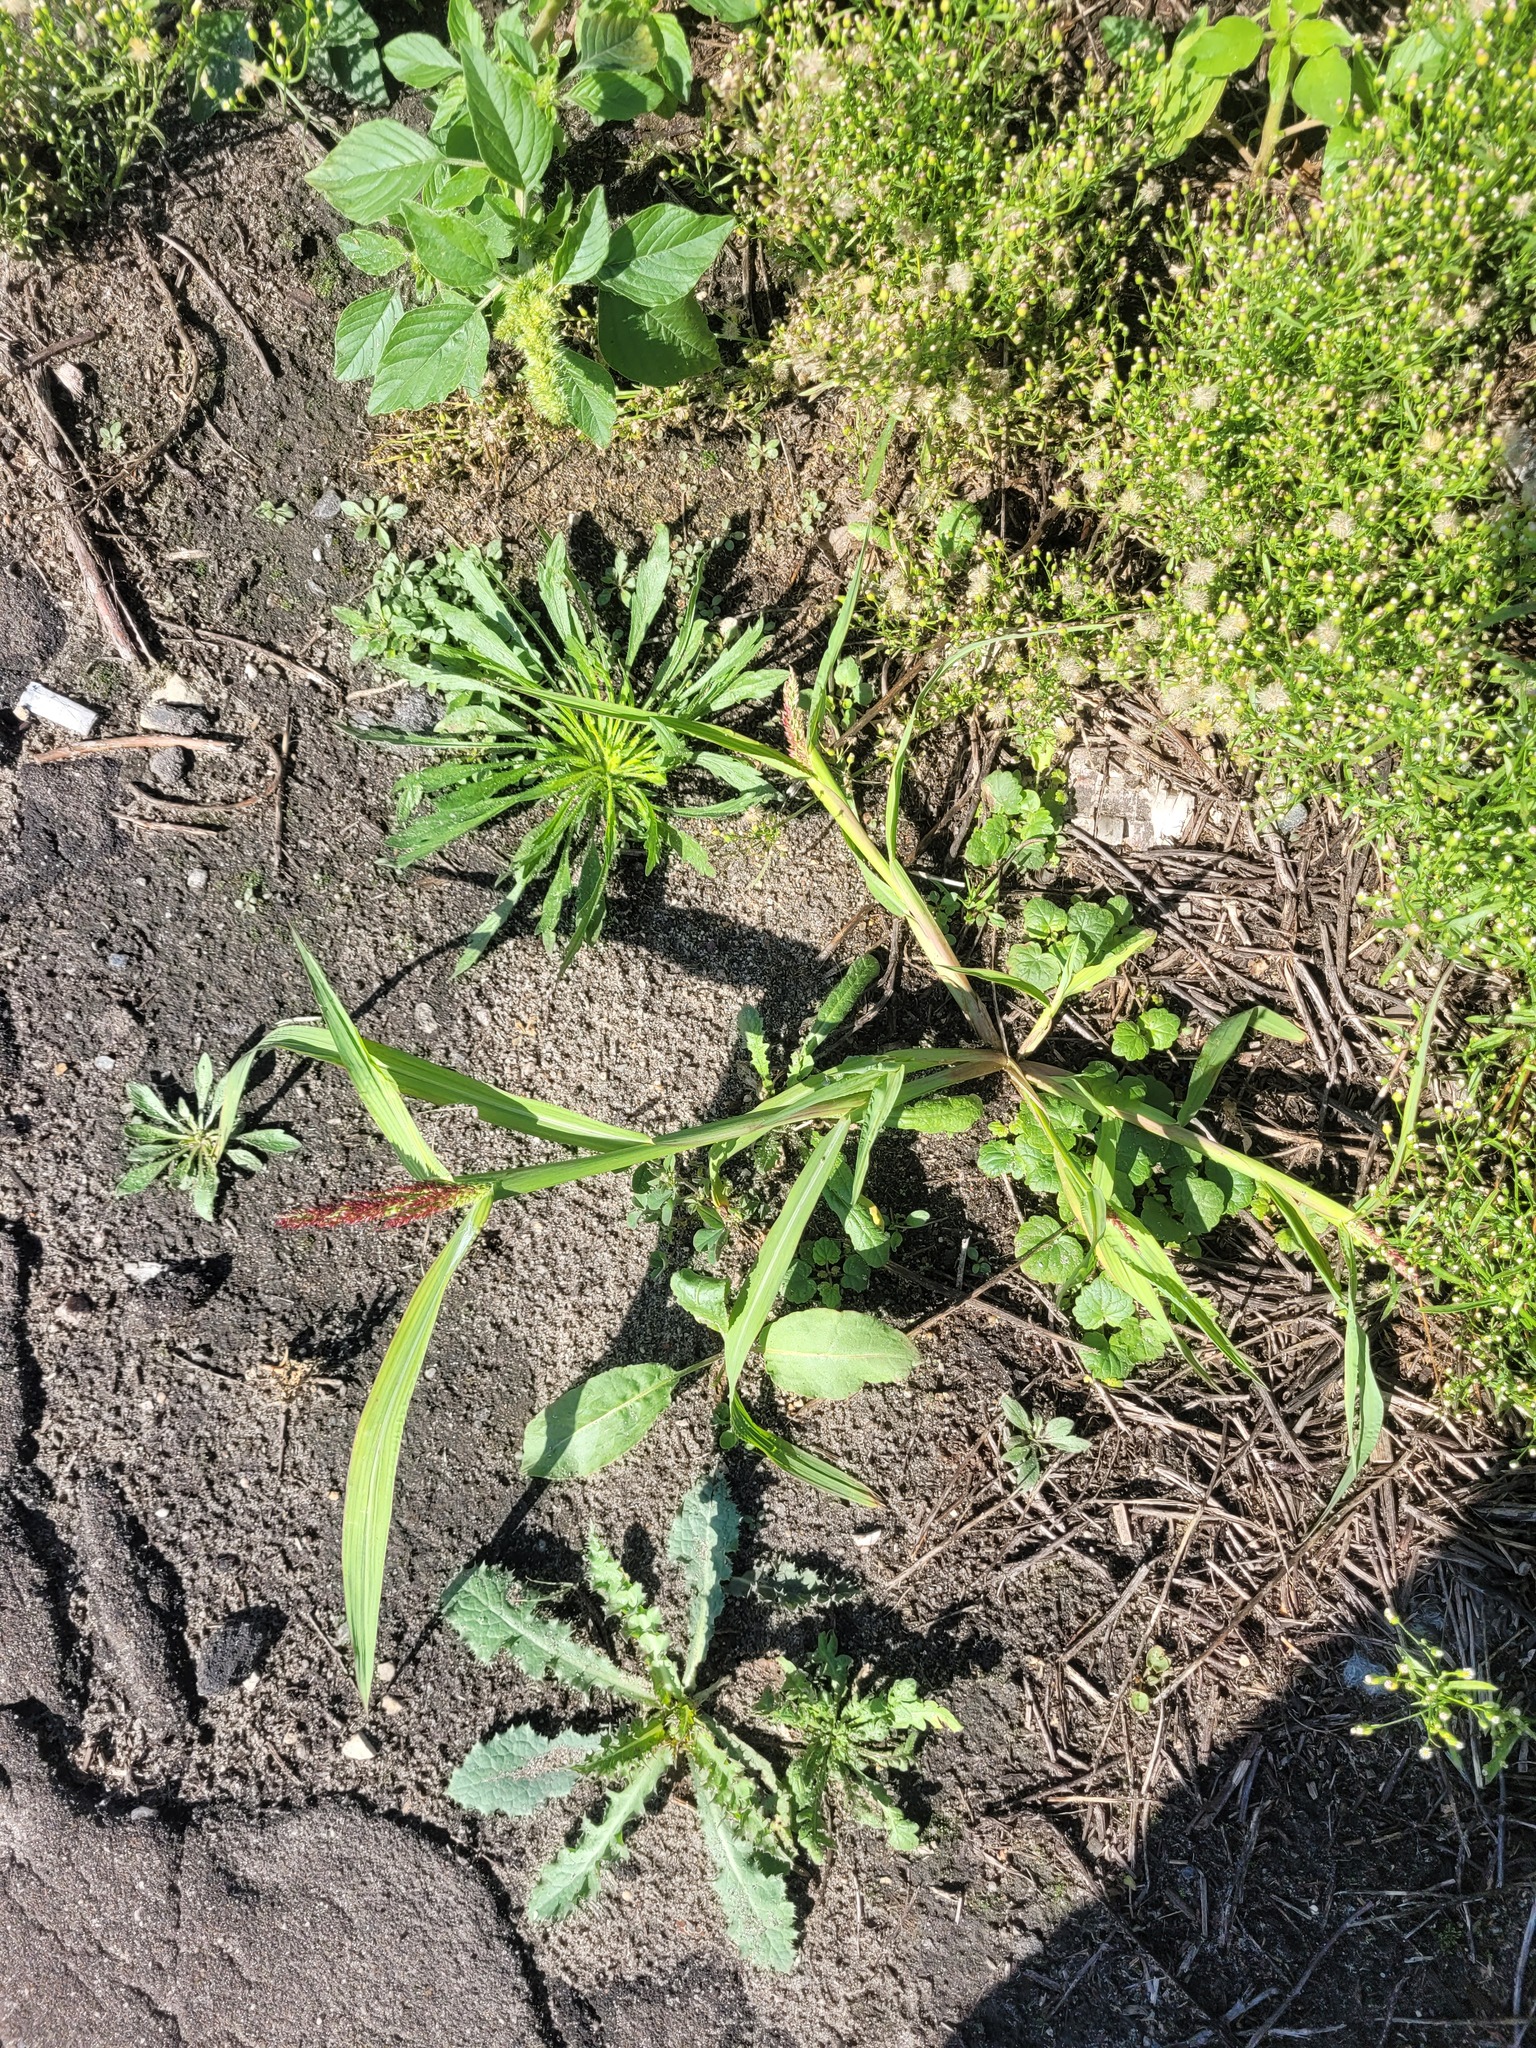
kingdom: Plantae
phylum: Tracheophyta
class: Liliopsida
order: Poales
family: Poaceae
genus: Echinochloa
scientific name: Echinochloa crus-galli
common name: Cockspur
